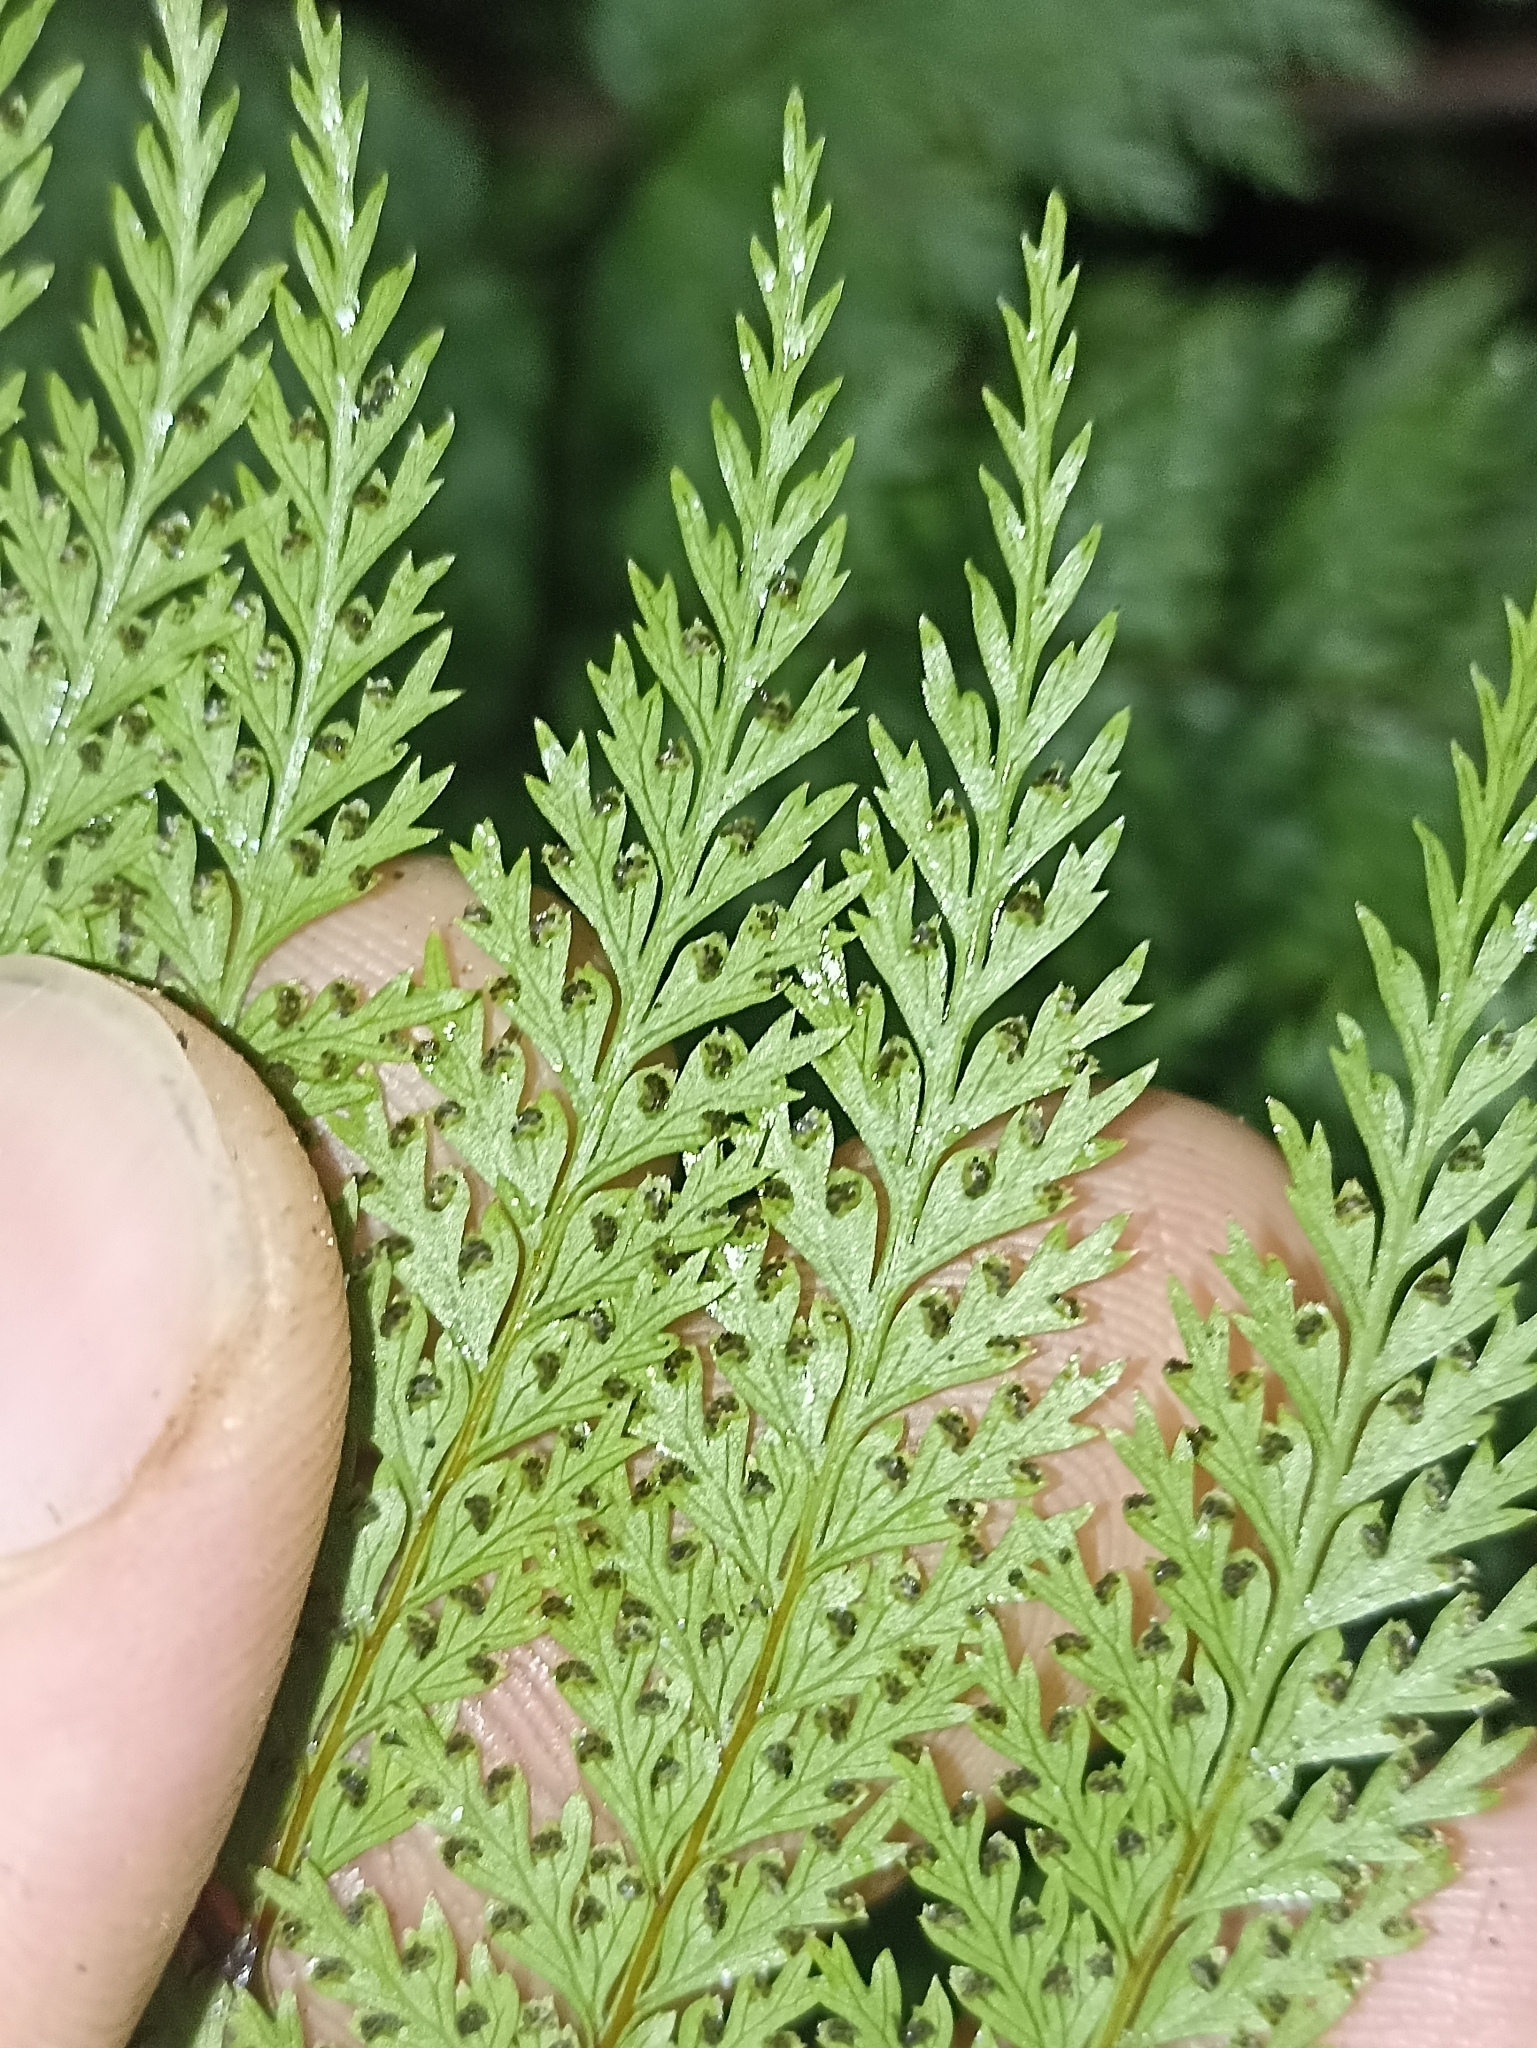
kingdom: Plantae
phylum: Tracheophyta
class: Polypodiopsida
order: Polypodiales
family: Dennstaedtiaceae
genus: Dennstaedtia
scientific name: Dennstaedtia novae-zelandiae
